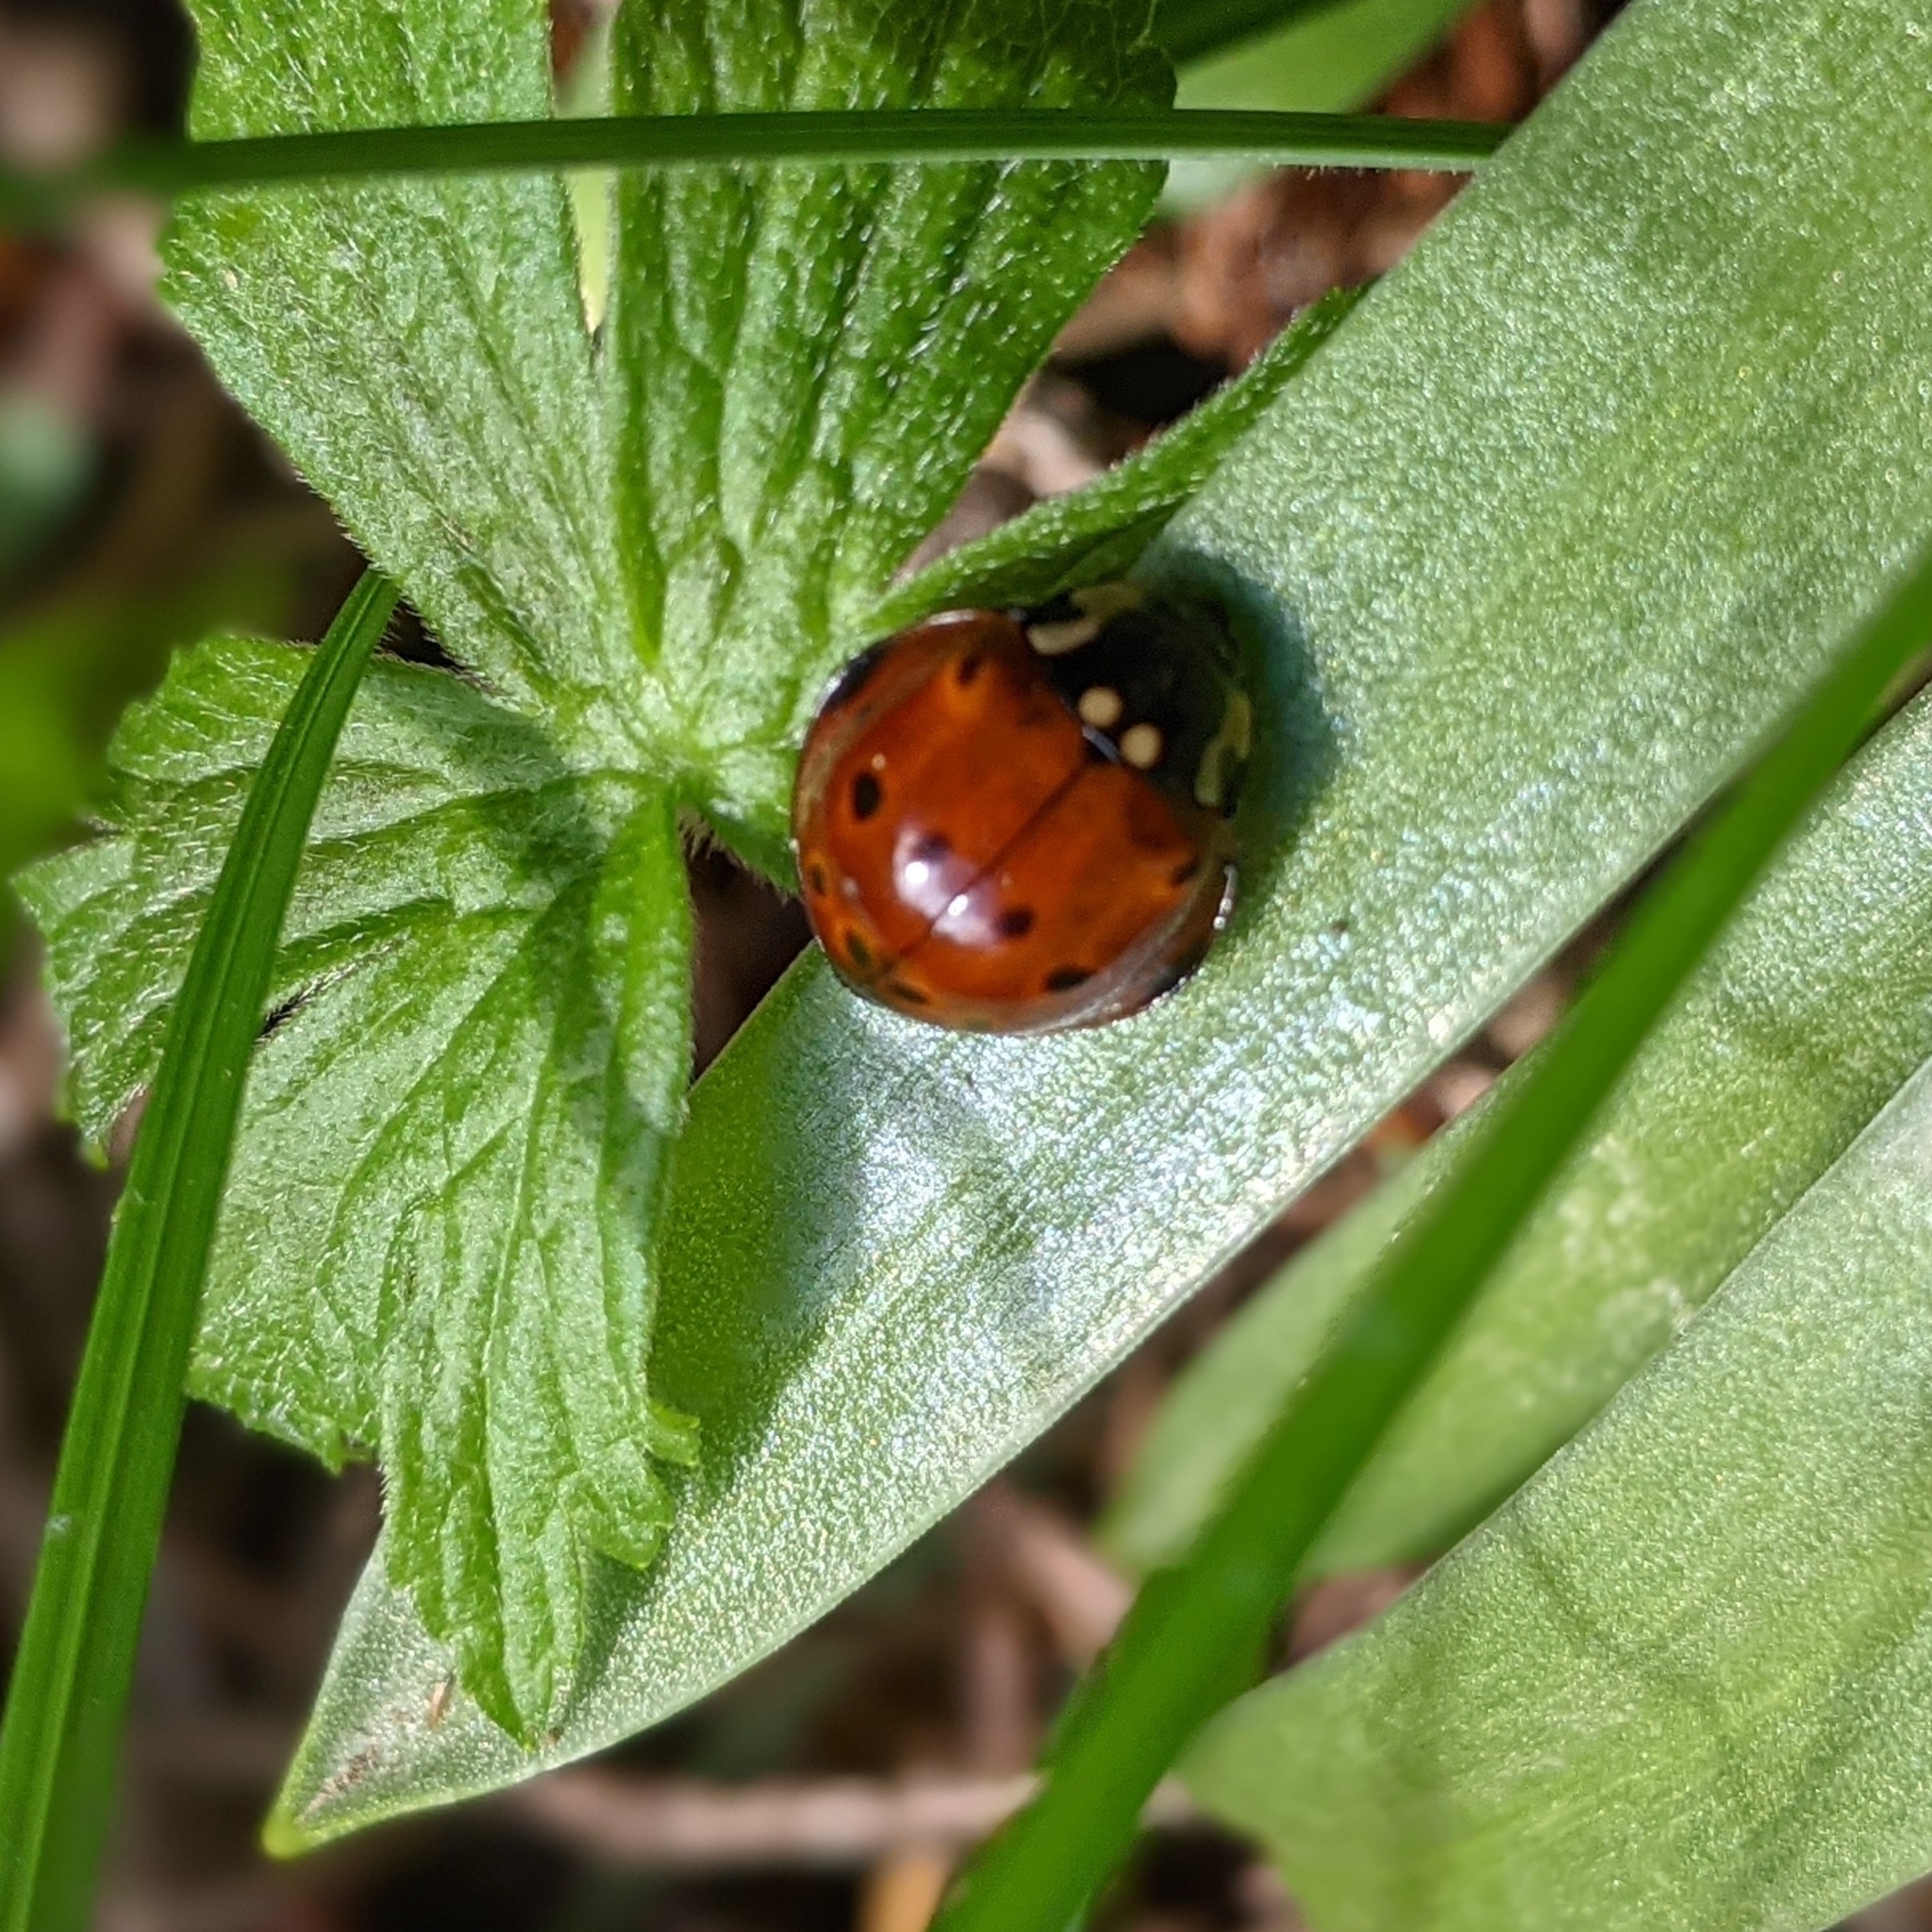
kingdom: Animalia
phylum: Arthropoda
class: Insecta
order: Coleoptera
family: Coccinellidae
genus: Anatis
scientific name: Anatis rathvoni
